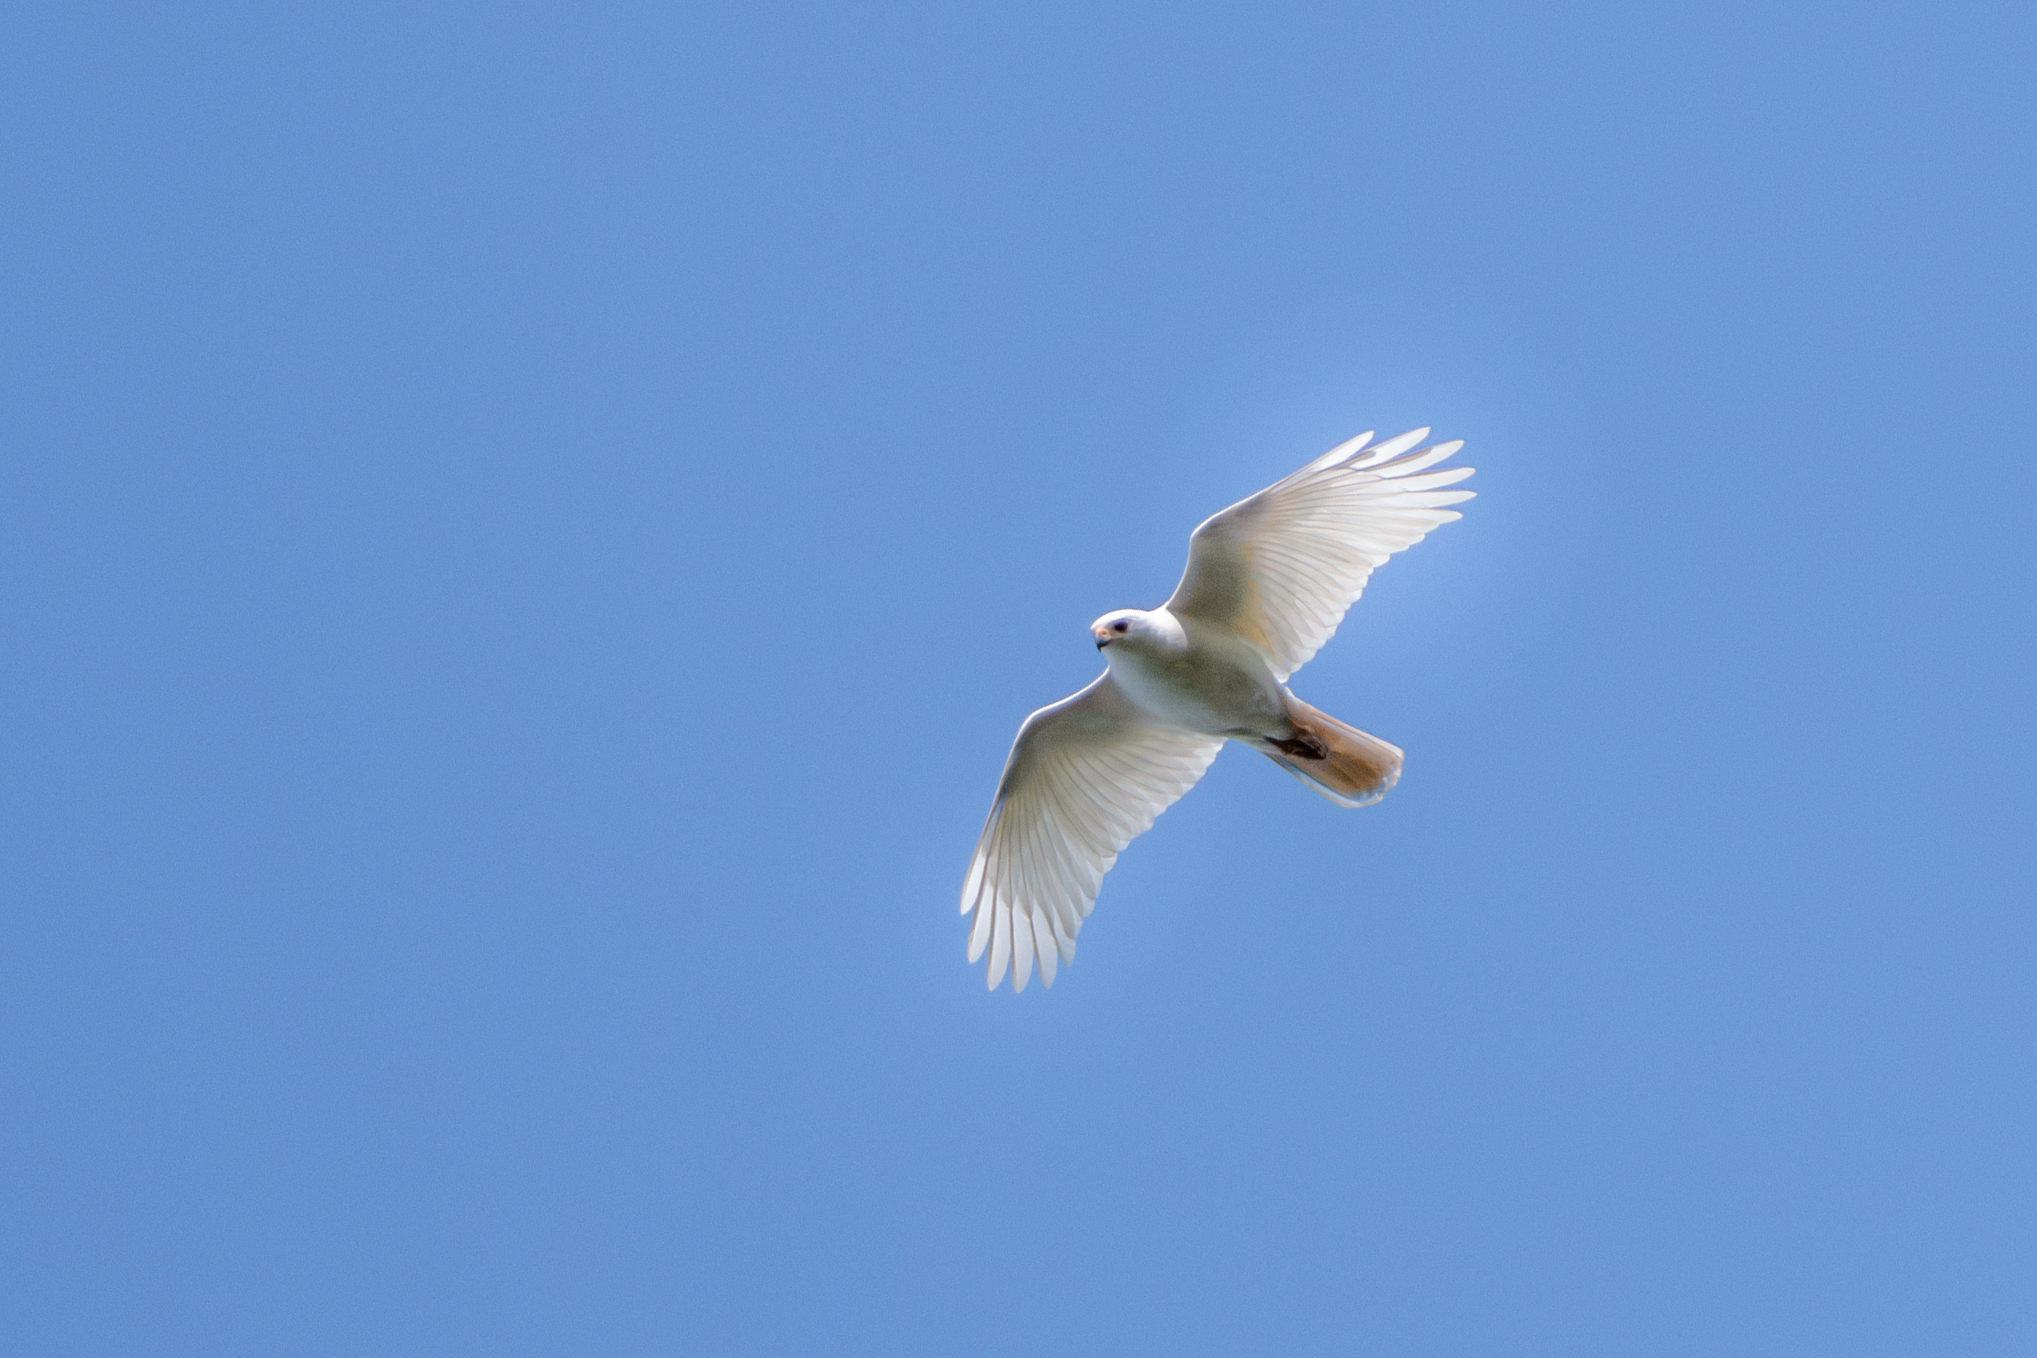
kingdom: Animalia
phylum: Chordata
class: Aves
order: Accipitriformes
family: Accipitridae
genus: Accipiter
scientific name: Accipiter novaehollandiae
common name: Grey goshawk
